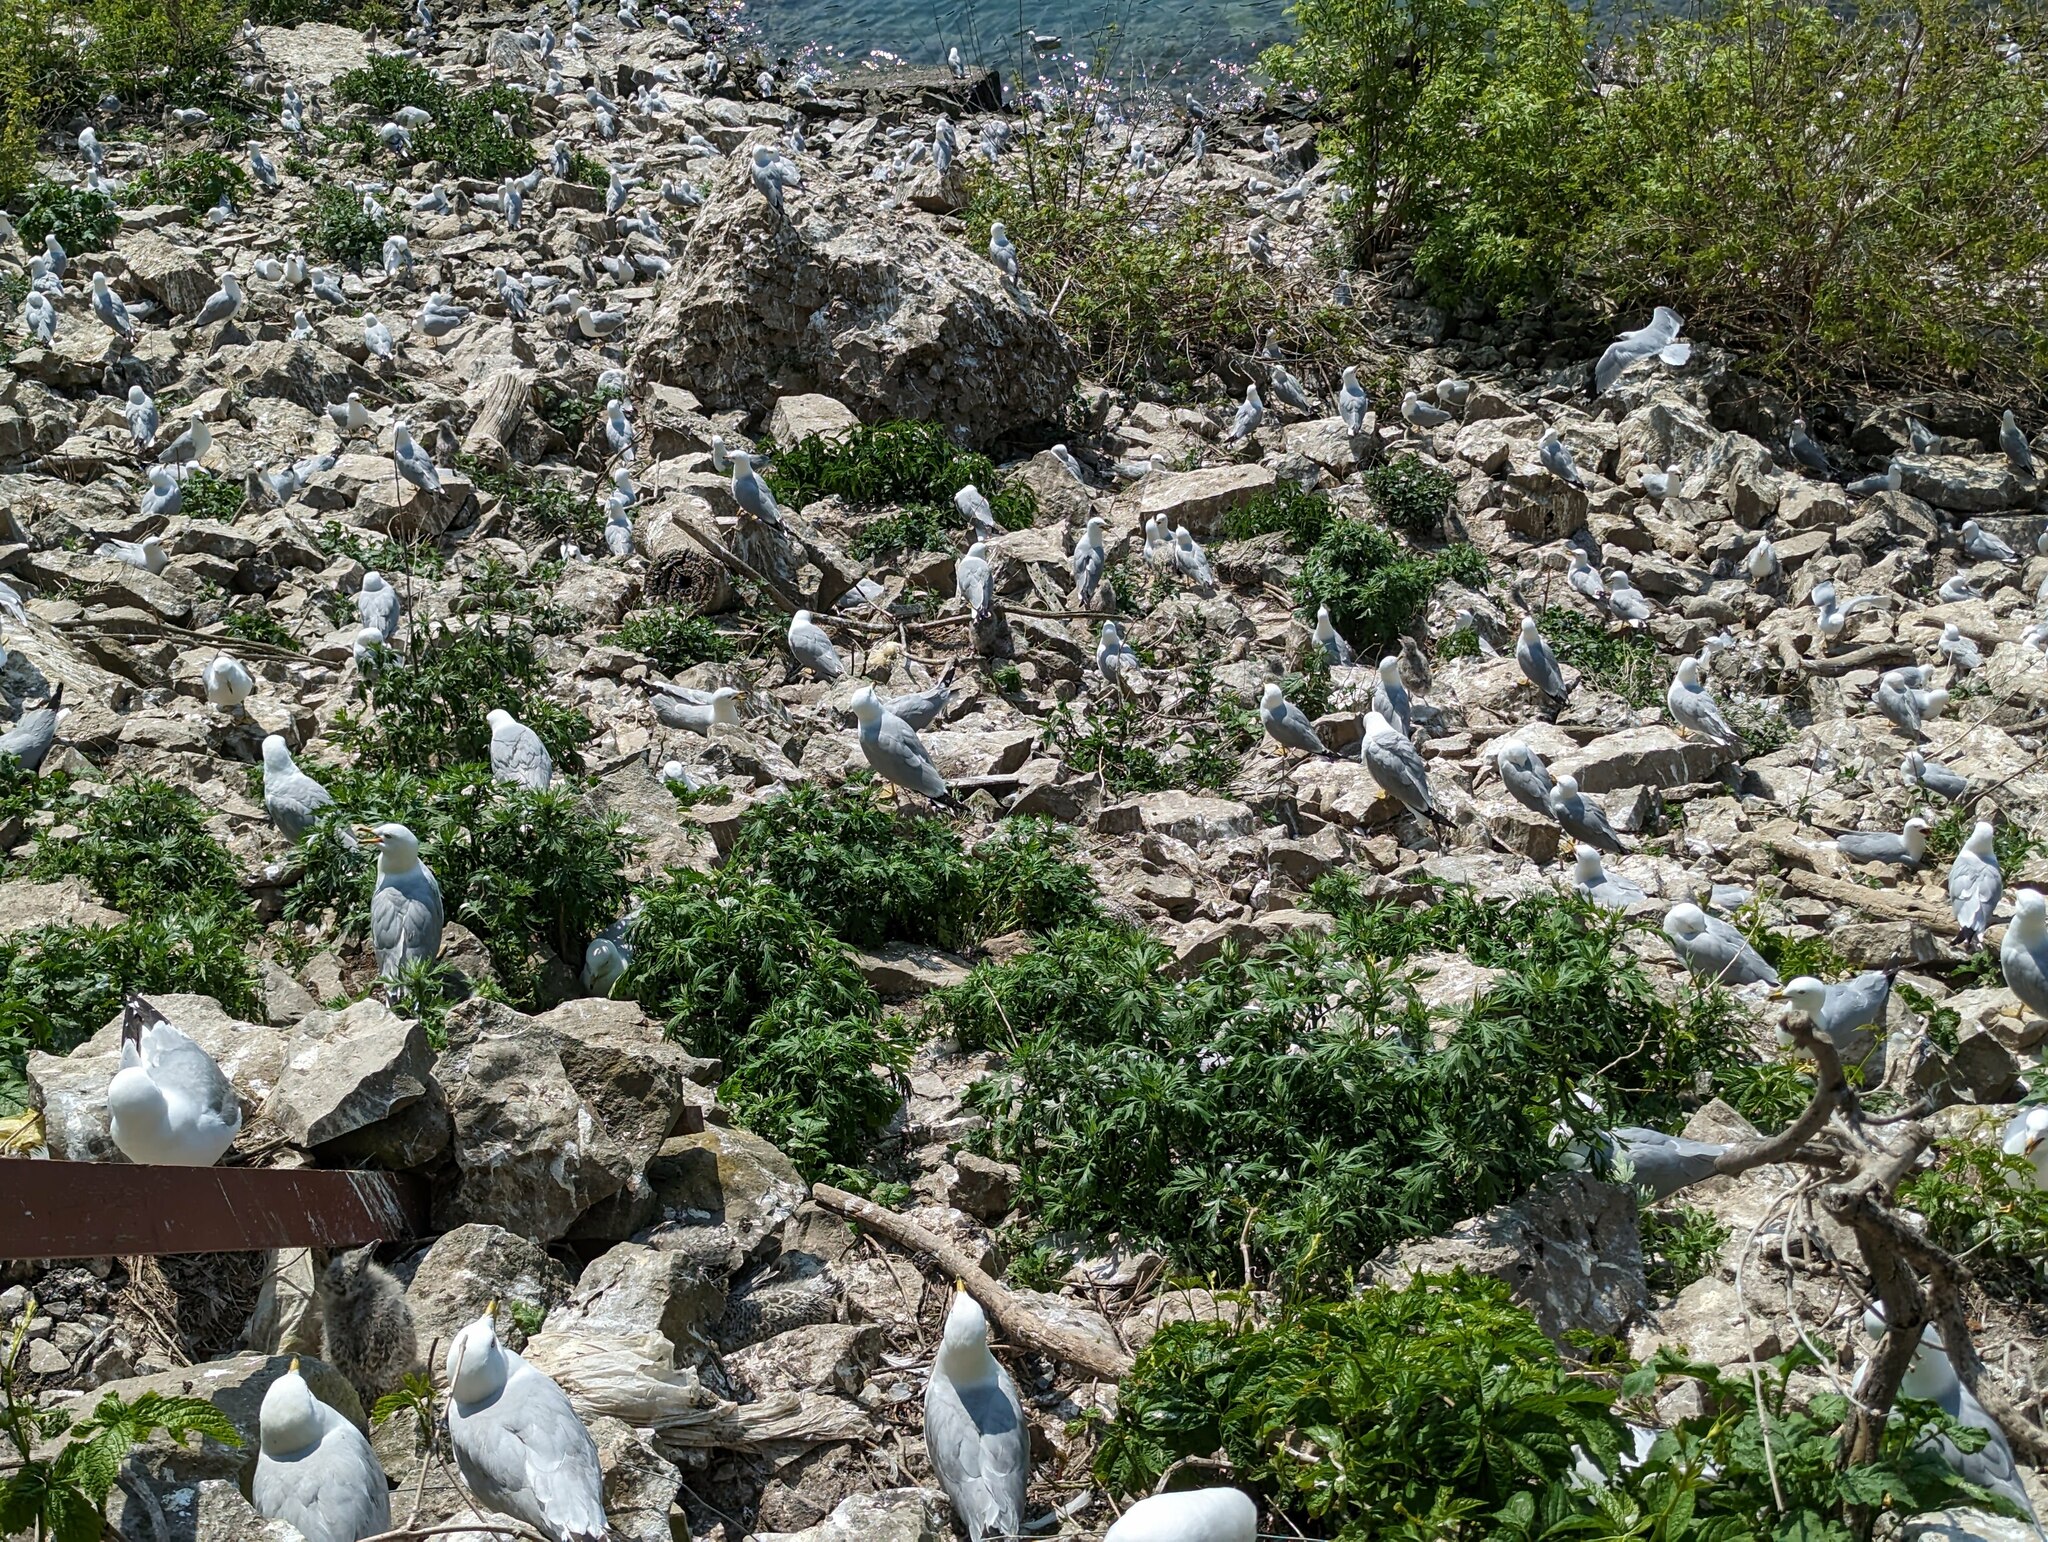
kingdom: Animalia
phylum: Chordata
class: Aves
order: Charadriiformes
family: Laridae
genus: Larus
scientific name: Larus delawarensis
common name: Ring-billed gull
